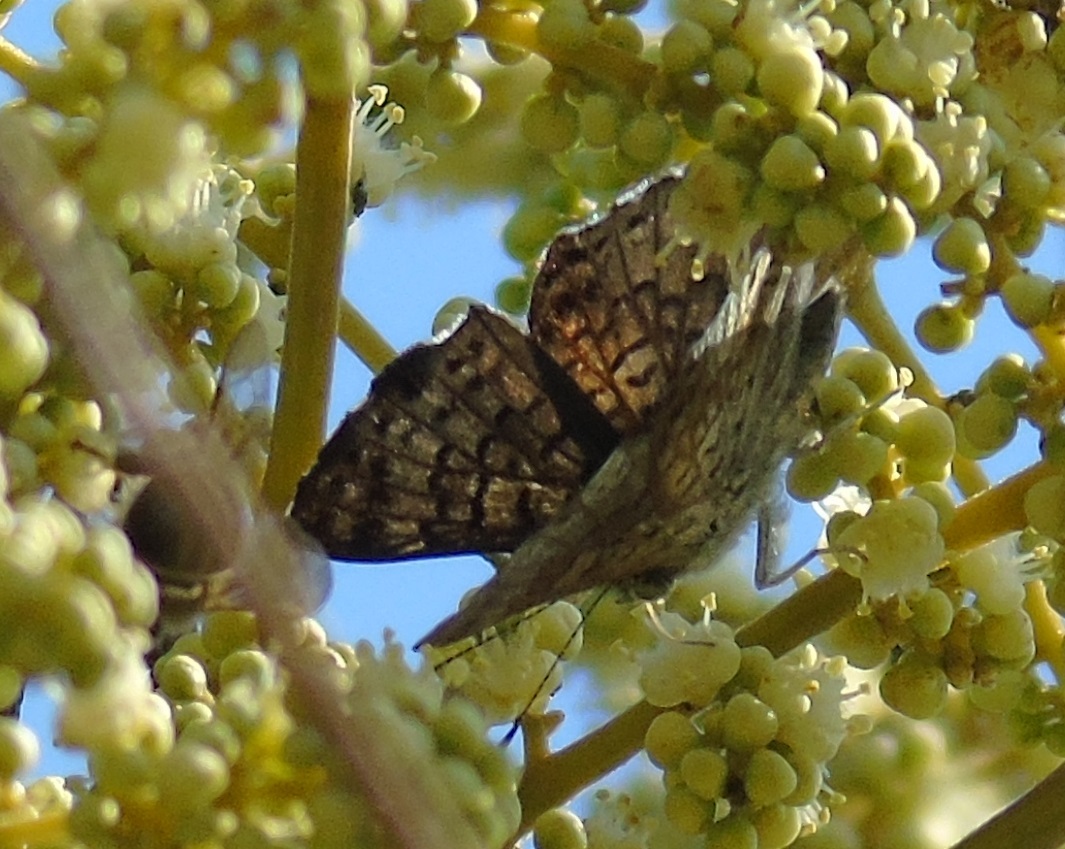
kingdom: Animalia
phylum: Arthropoda
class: Insecta
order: Diptera
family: Acroceridae
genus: Lasia
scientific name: Lasia
